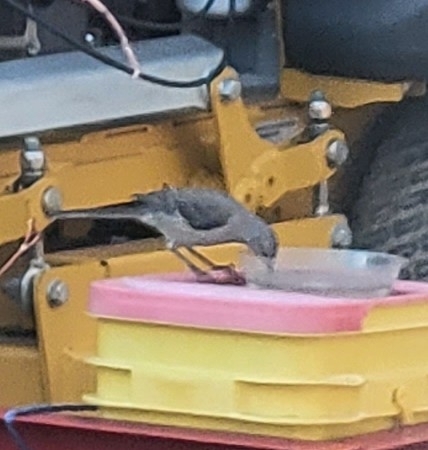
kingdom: Animalia
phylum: Chordata
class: Aves
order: Passeriformes
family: Mimidae
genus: Mimus
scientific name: Mimus polyglottos
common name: Northern mockingbird
